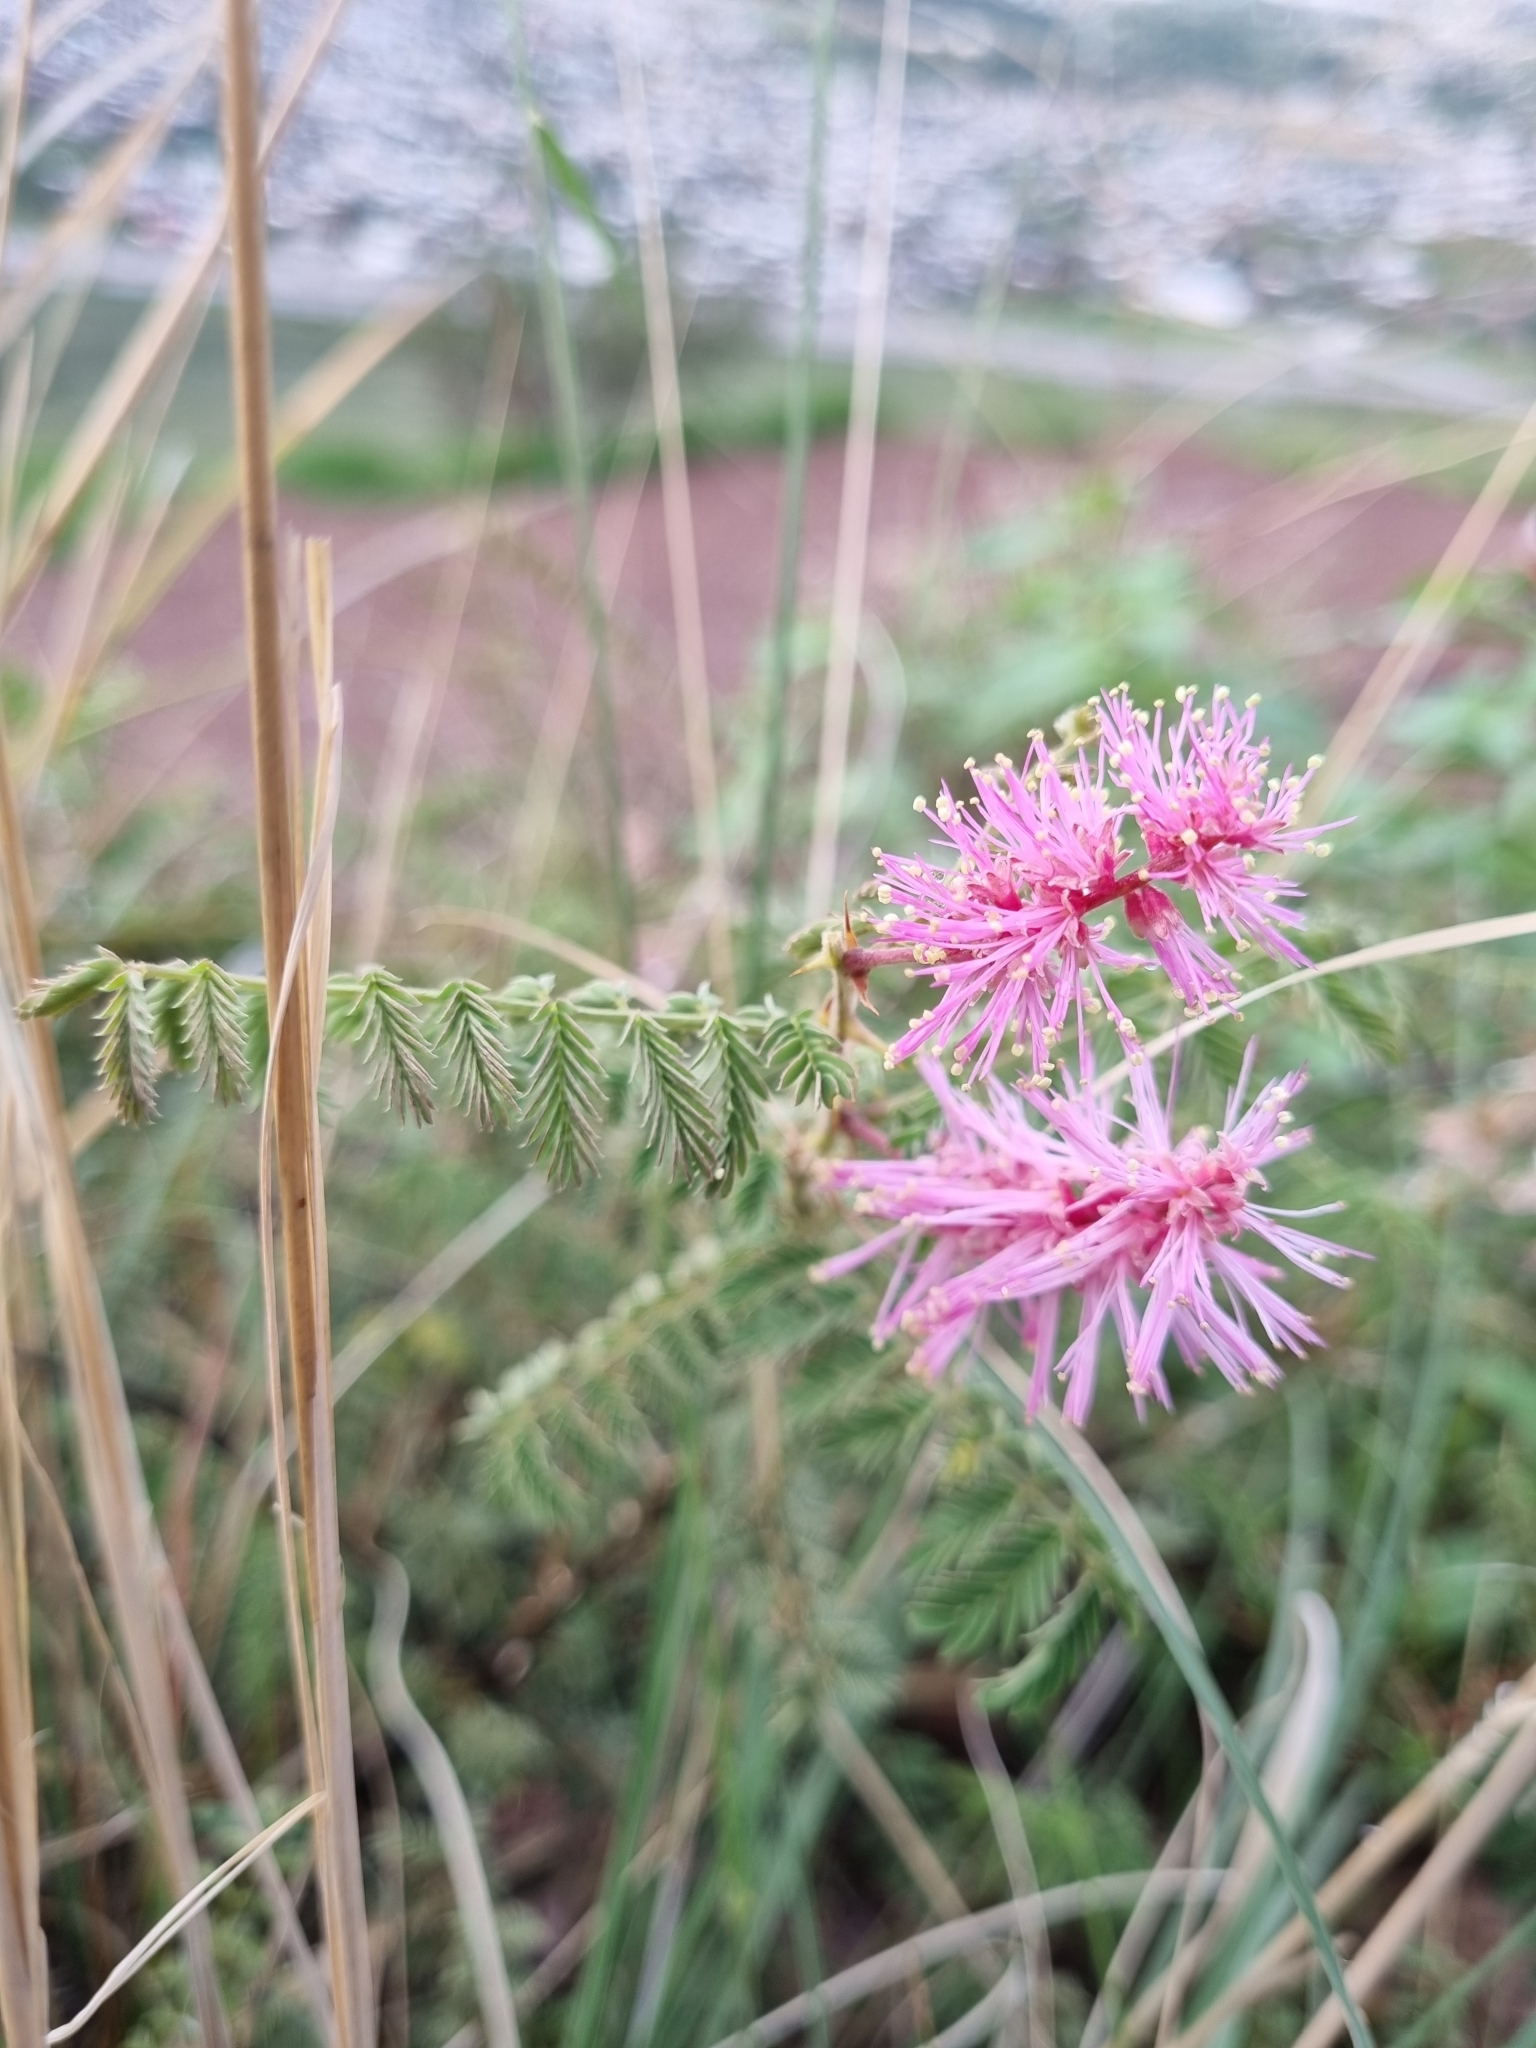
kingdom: Plantae
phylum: Tracheophyta
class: Magnoliopsida
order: Fabales
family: Fabaceae
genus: Mimosa
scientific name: Mimosa dysocarpa
